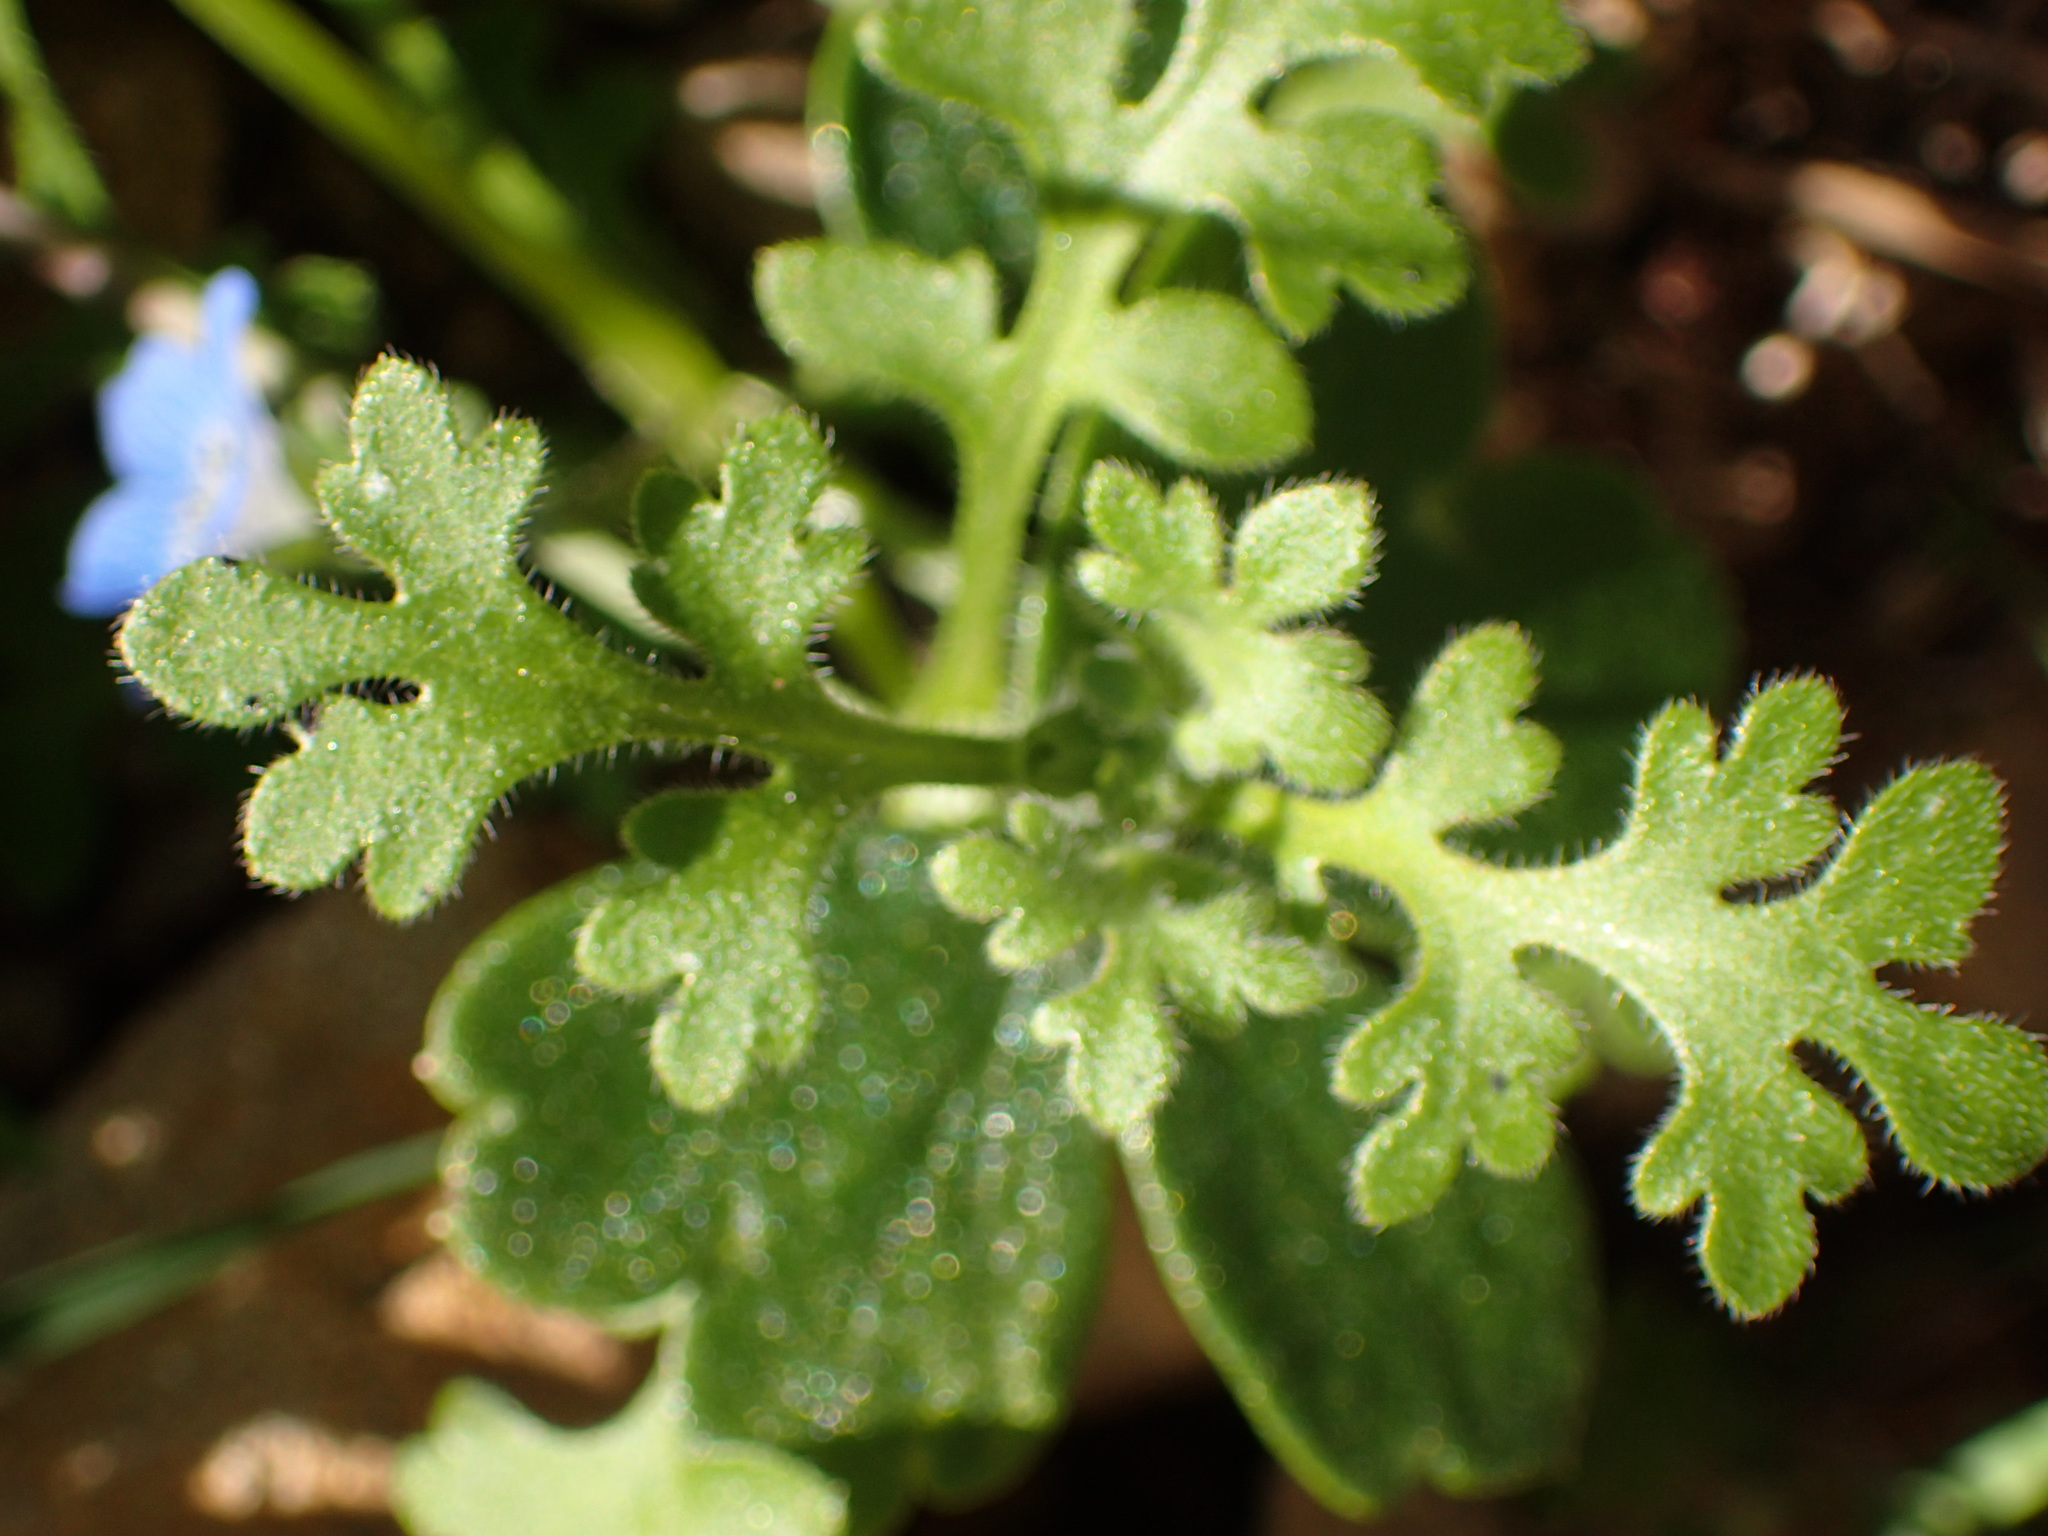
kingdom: Plantae
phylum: Tracheophyta
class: Magnoliopsida
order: Boraginales
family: Hydrophyllaceae
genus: Nemophila
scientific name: Nemophila menziesii
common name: Baby's-blue-eyes
